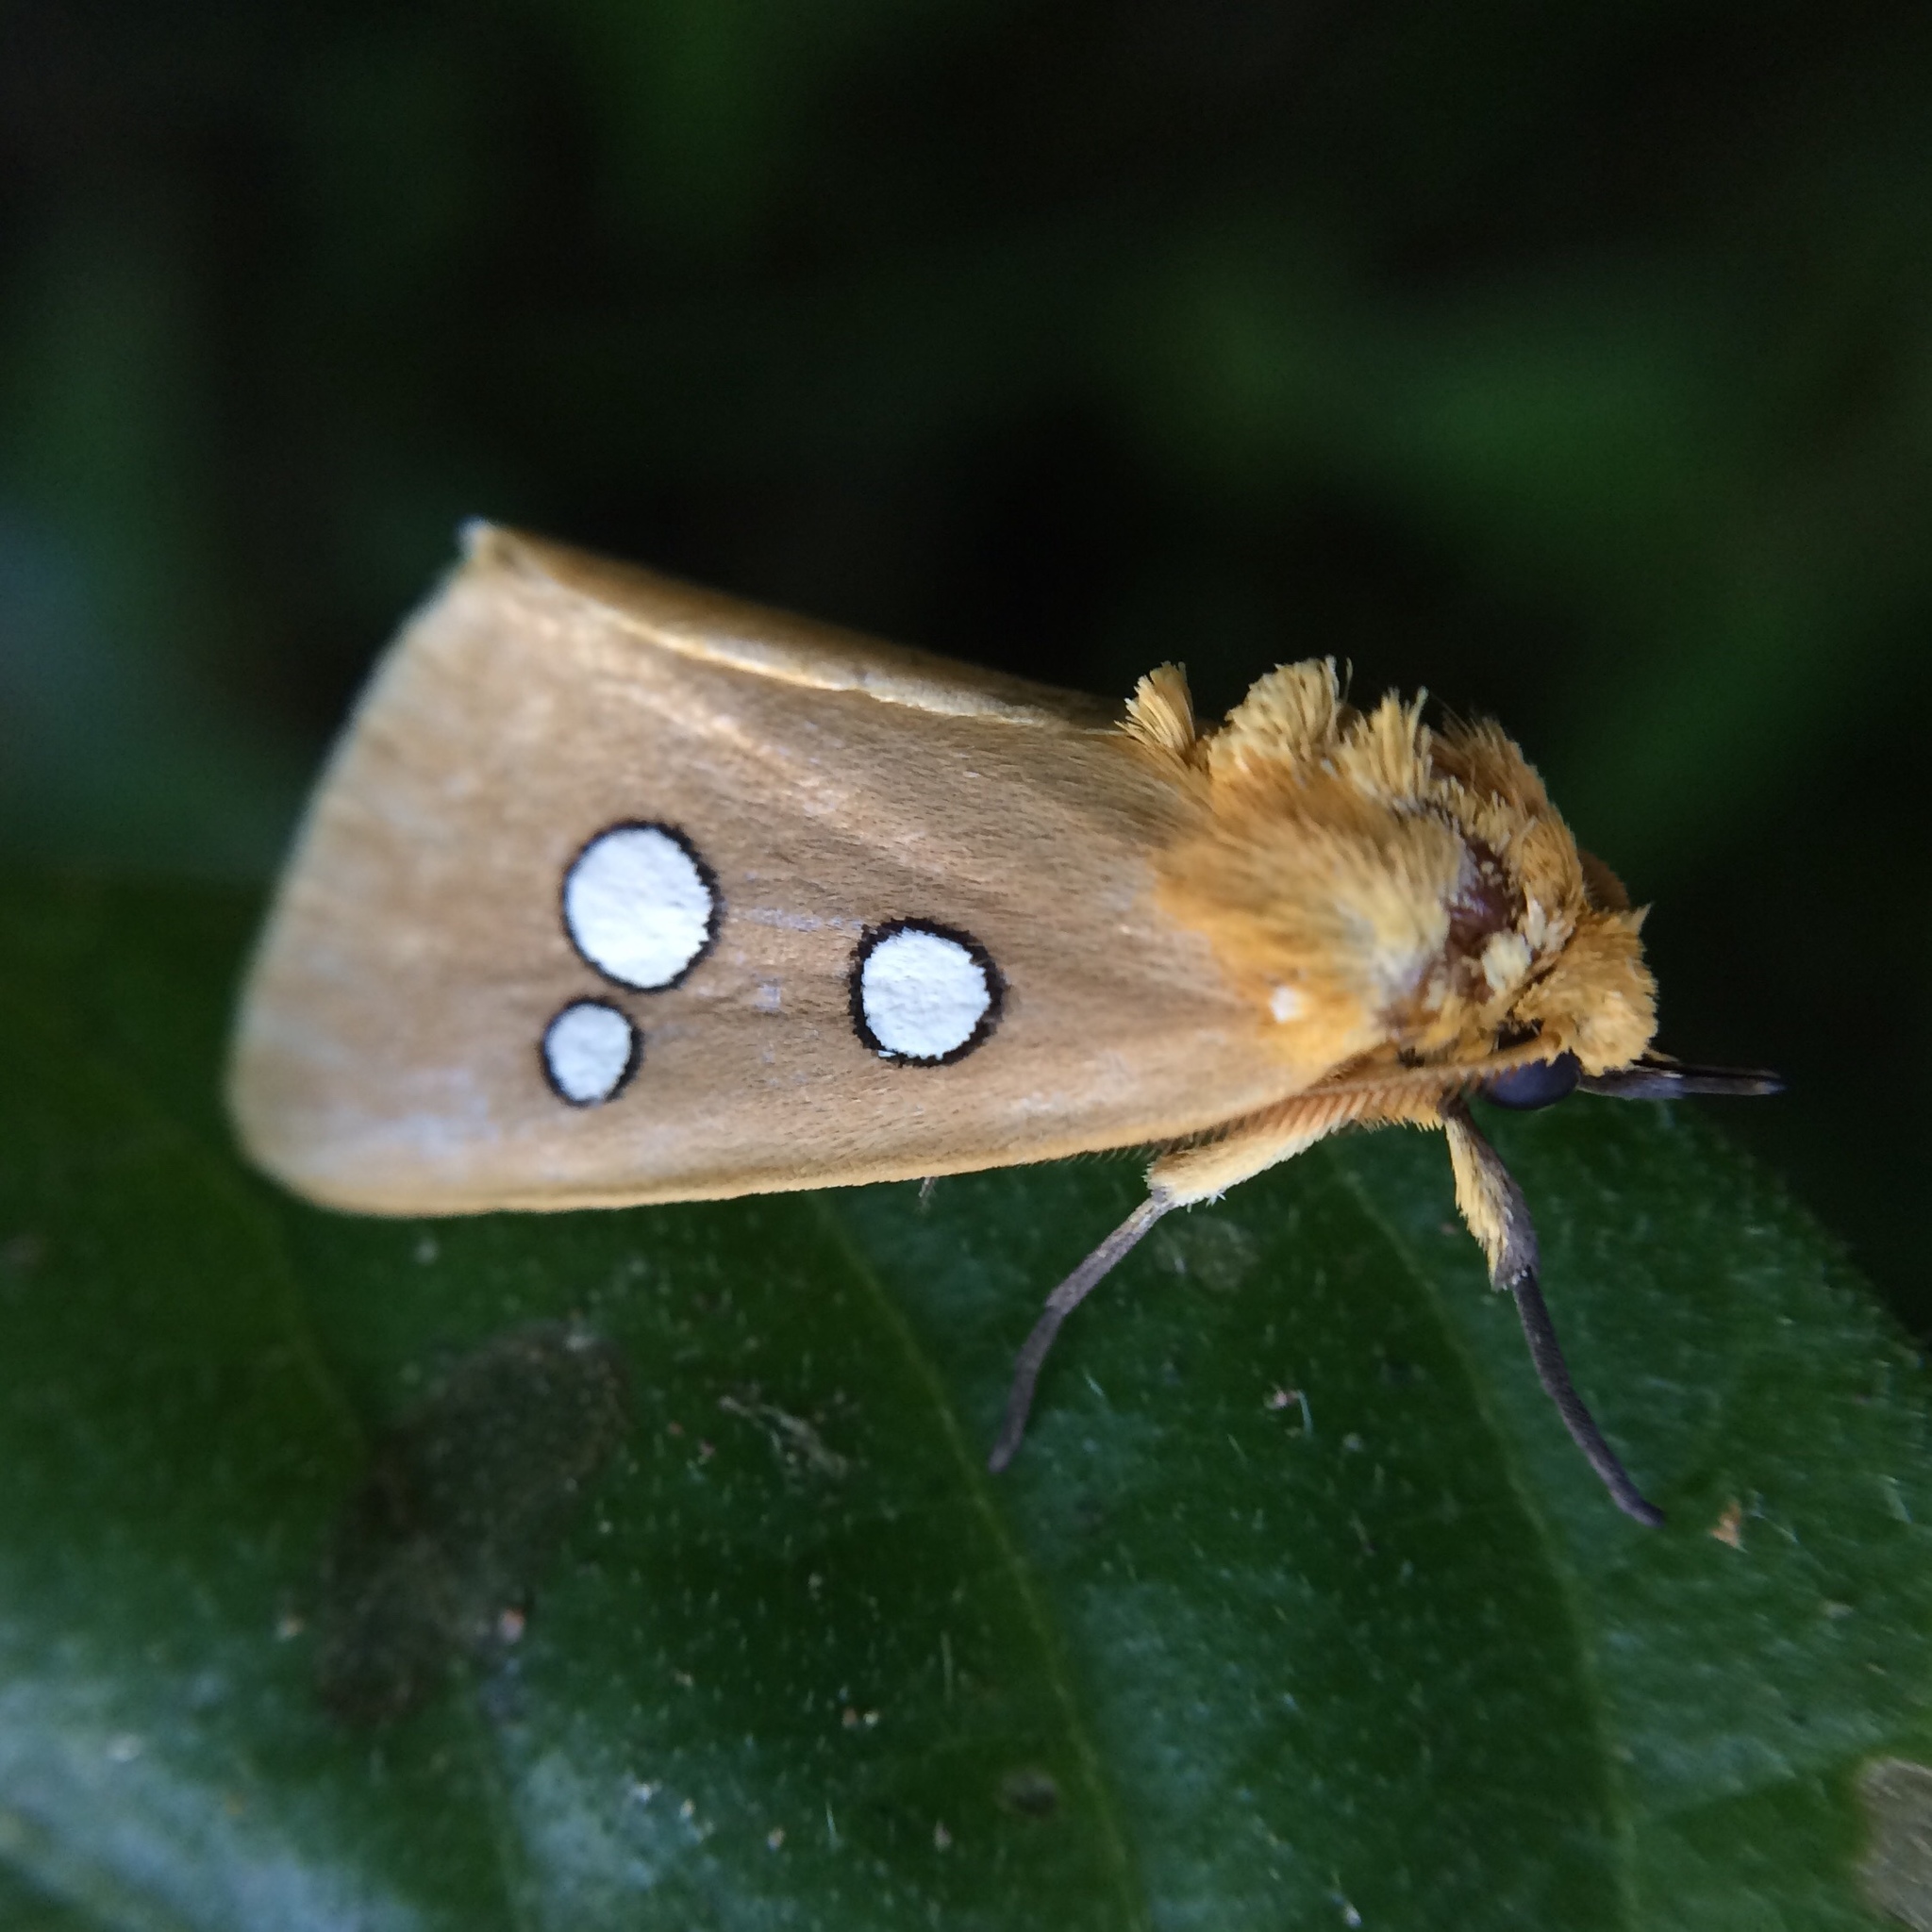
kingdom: Animalia
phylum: Arthropoda
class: Insecta
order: Lepidoptera
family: Erebidae
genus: Rhanidophora
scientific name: Rhanidophora cinctigutta
